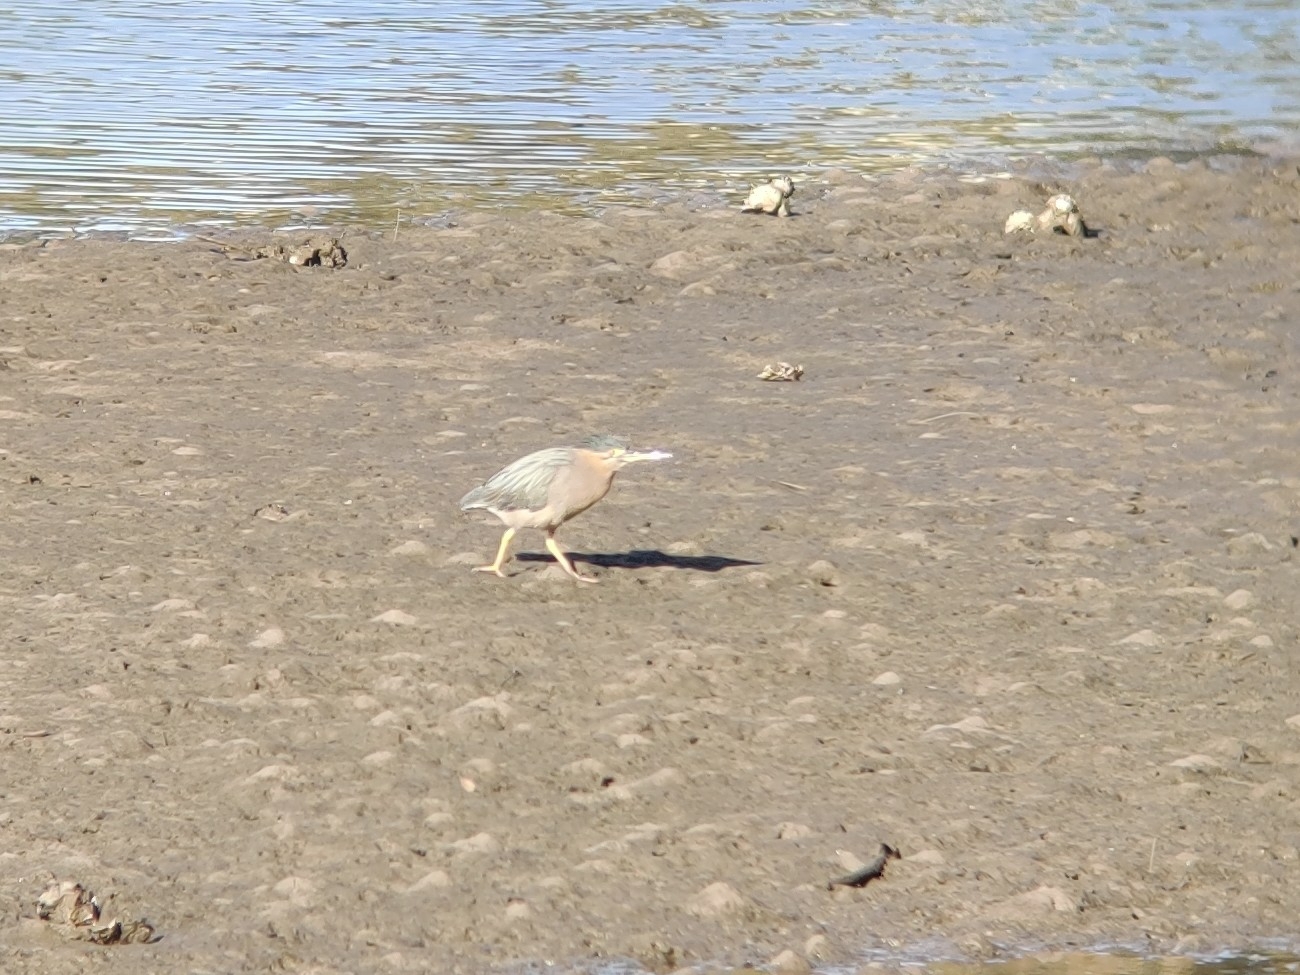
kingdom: Animalia
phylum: Chordata
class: Aves
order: Pelecaniformes
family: Ardeidae
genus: Butorides
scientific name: Butorides striata
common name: Striated heron
